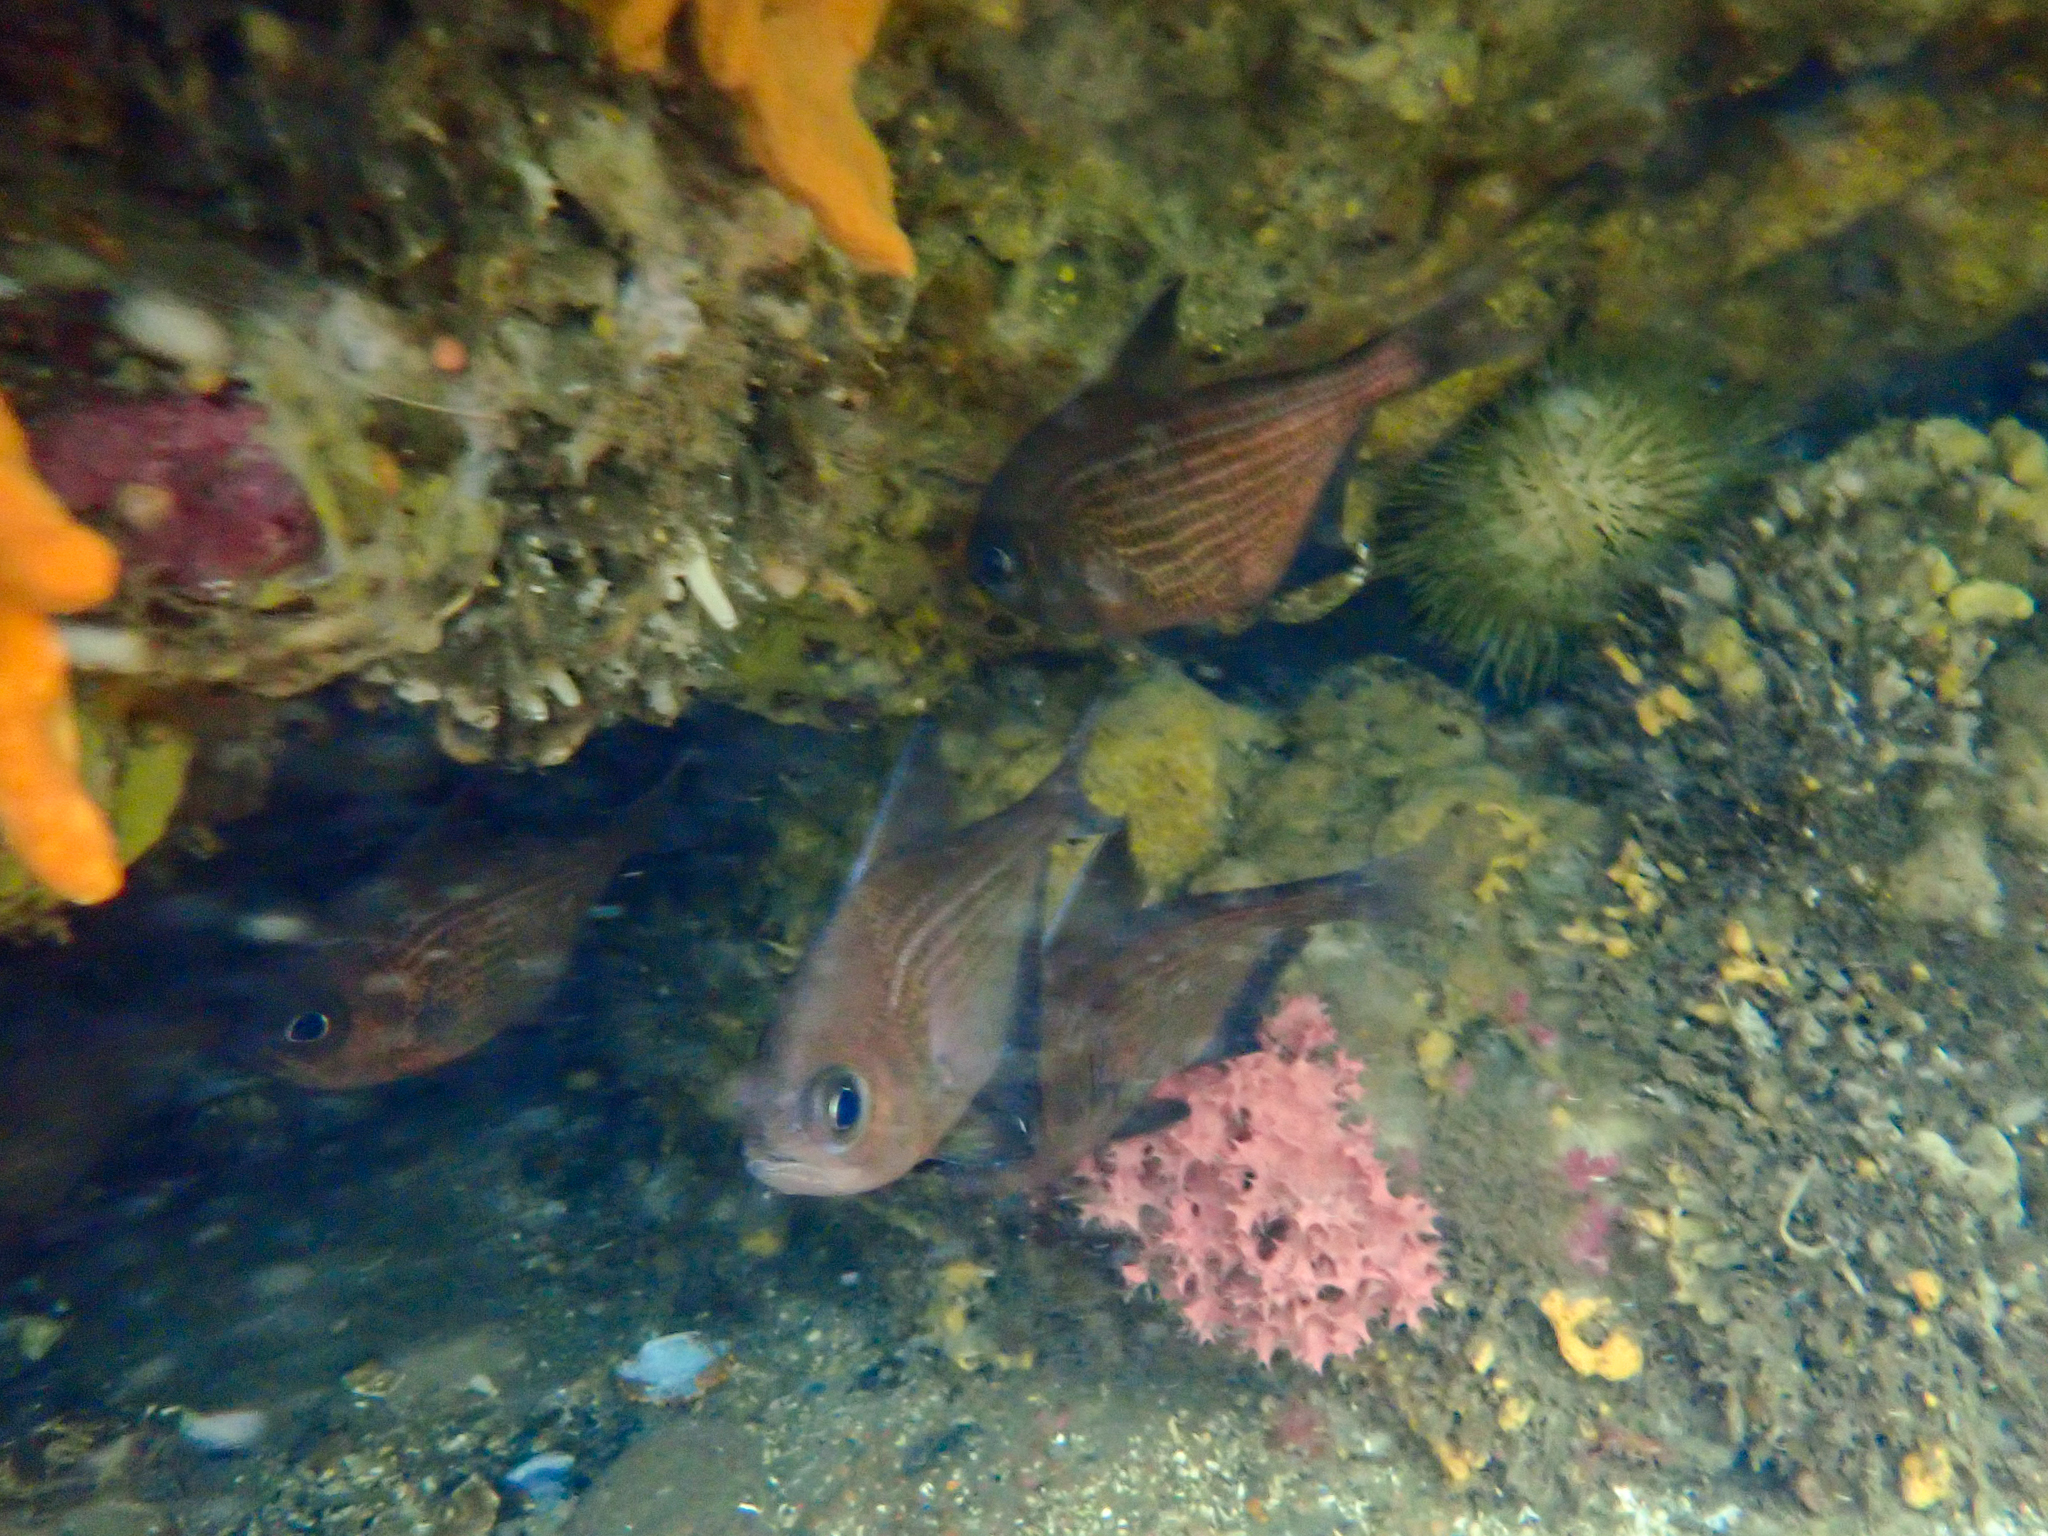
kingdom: Animalia
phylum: Chordata
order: Perciformes
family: Pempheridae
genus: Pempheris
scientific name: Pempheris multiradiata
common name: Big-scaled bullseye
